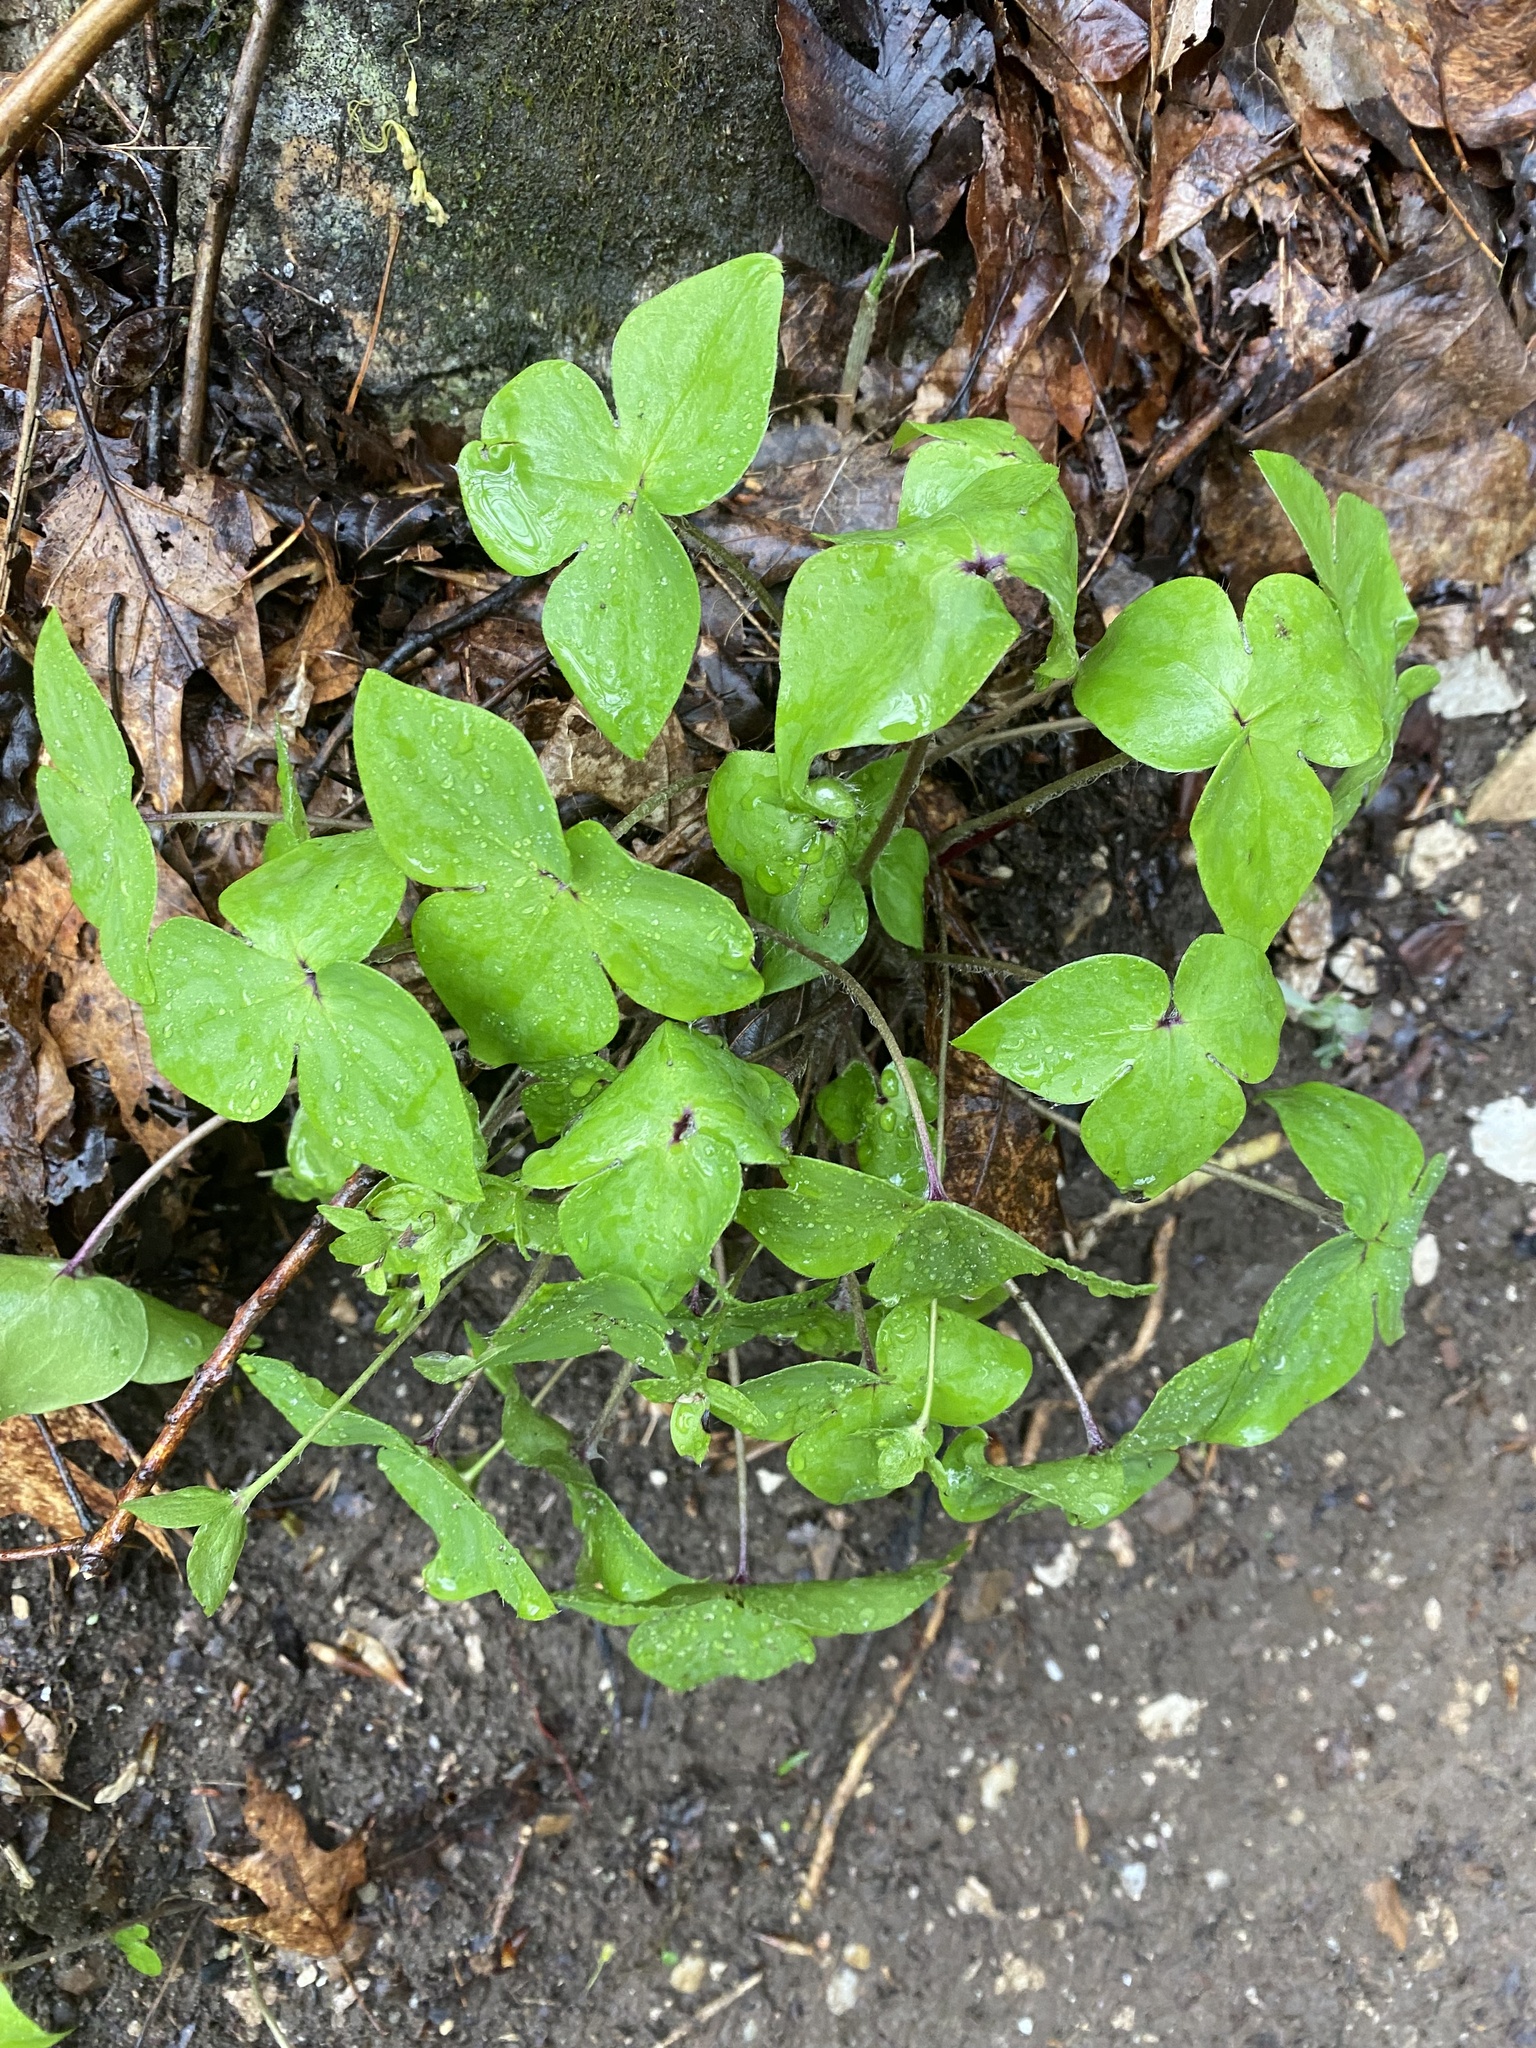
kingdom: Plantae
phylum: Tracheophyta
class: Magnoliopsida
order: Ranunculales
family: Ranunculaceae
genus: Hepatica
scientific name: Hepatica acutiloba
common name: Sharp-lobed hepatica
